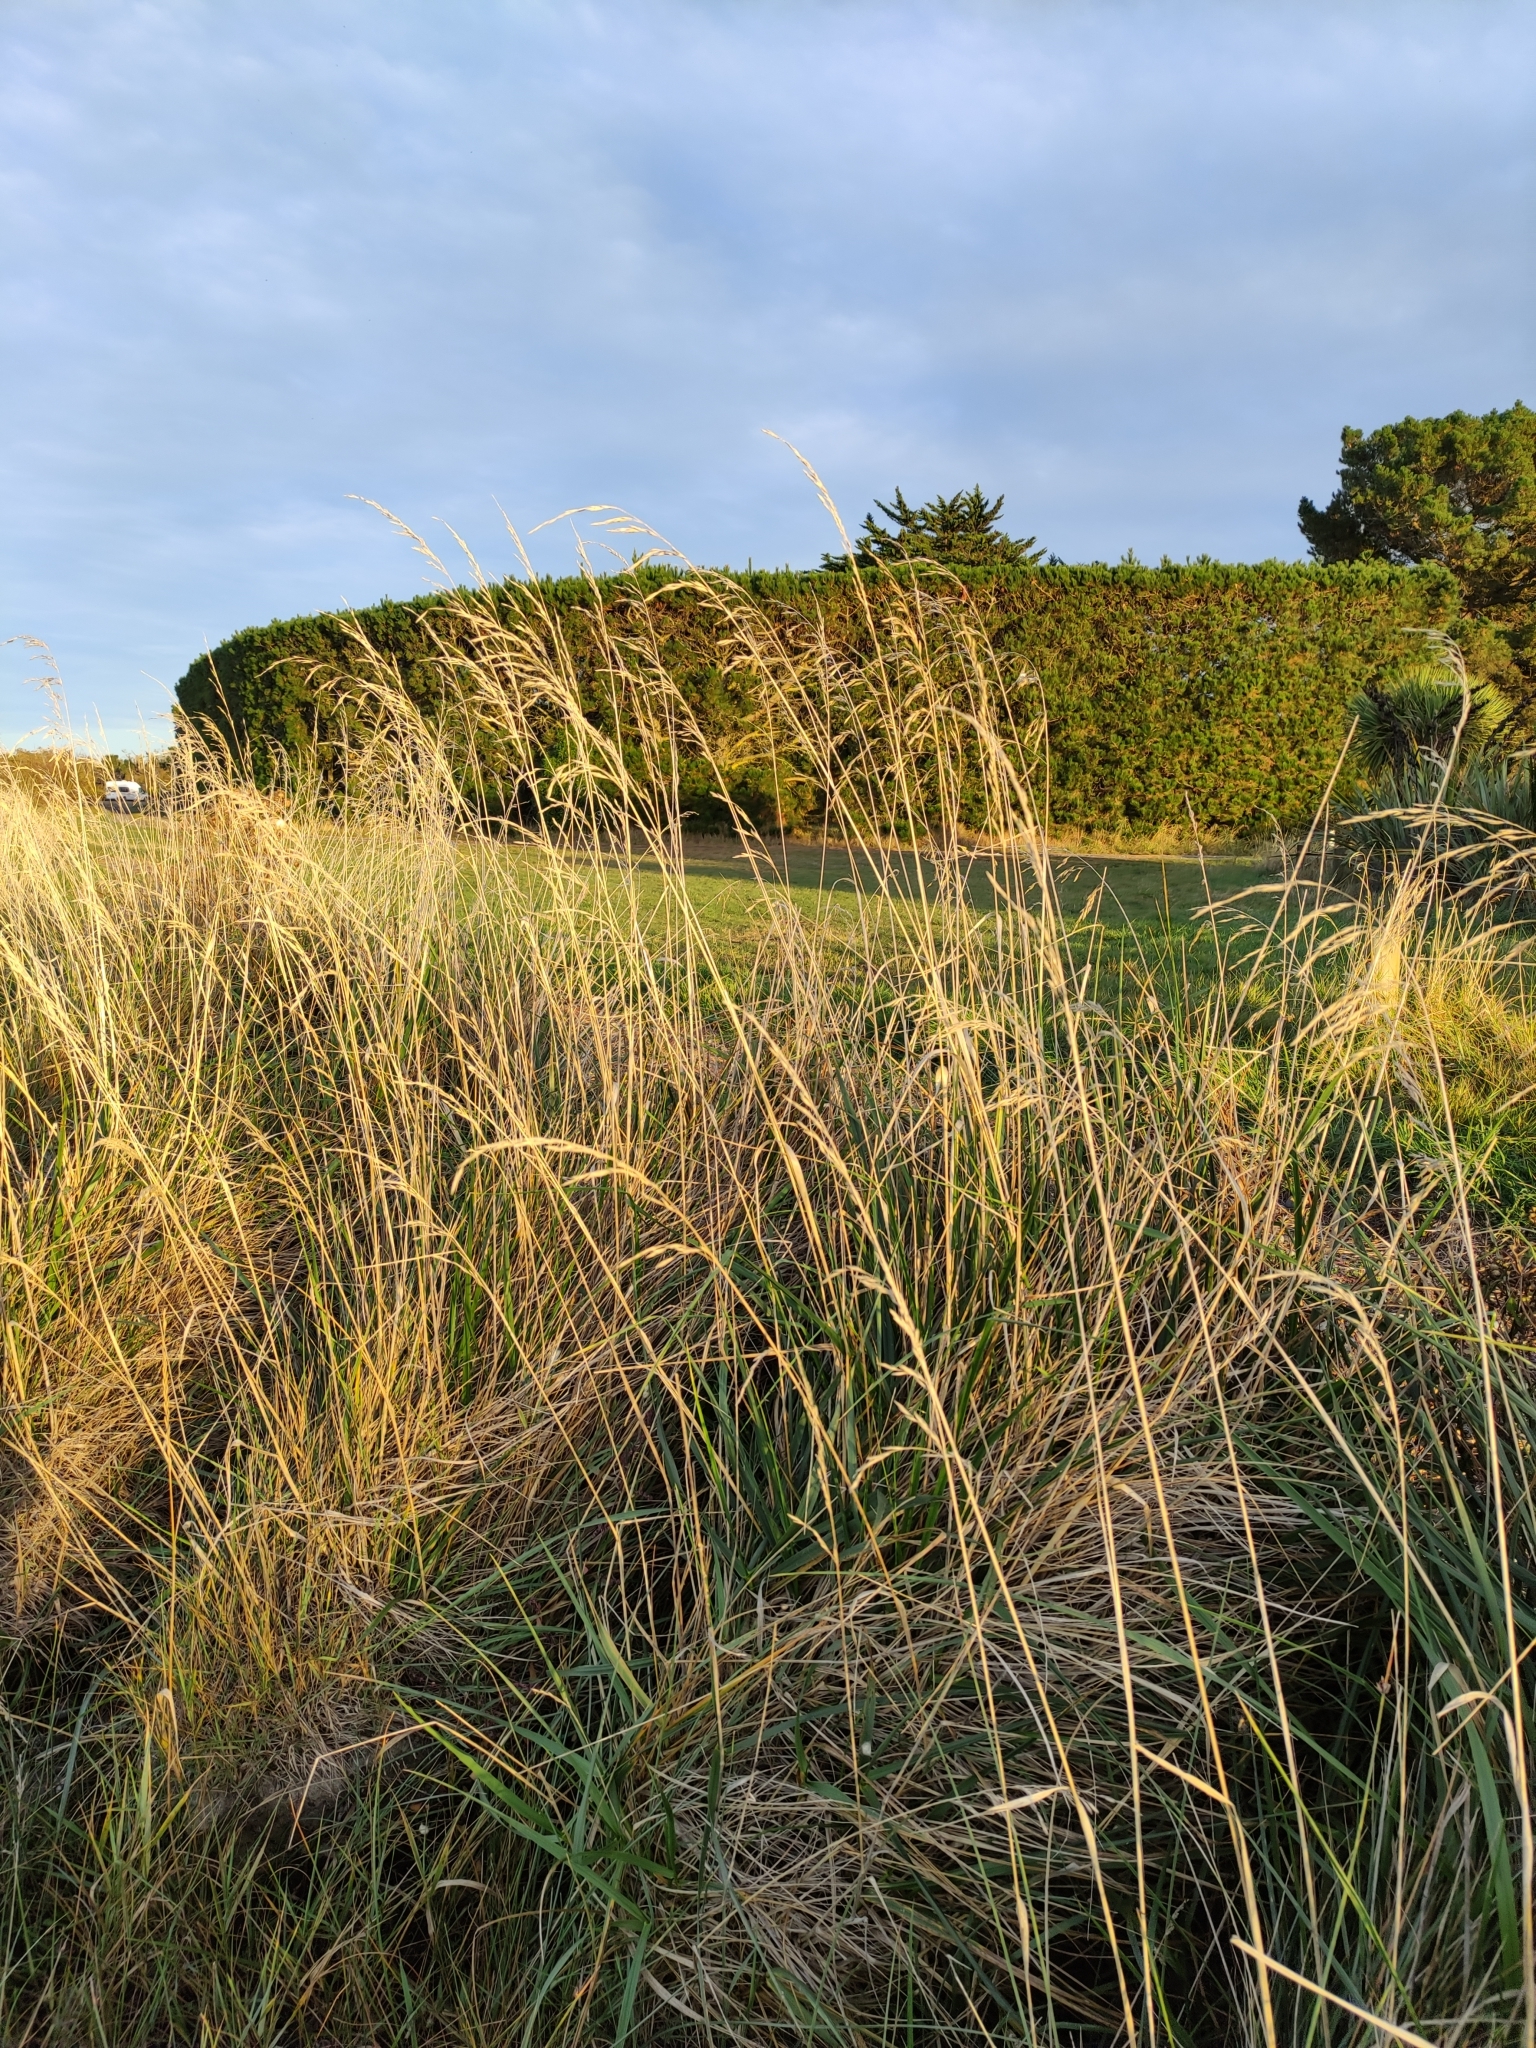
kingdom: Plantae
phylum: Tracheophyta
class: Liliopsida
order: Poales
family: Poaceae
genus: Lolium
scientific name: Lolium arundinaceum
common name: Reed fescue
